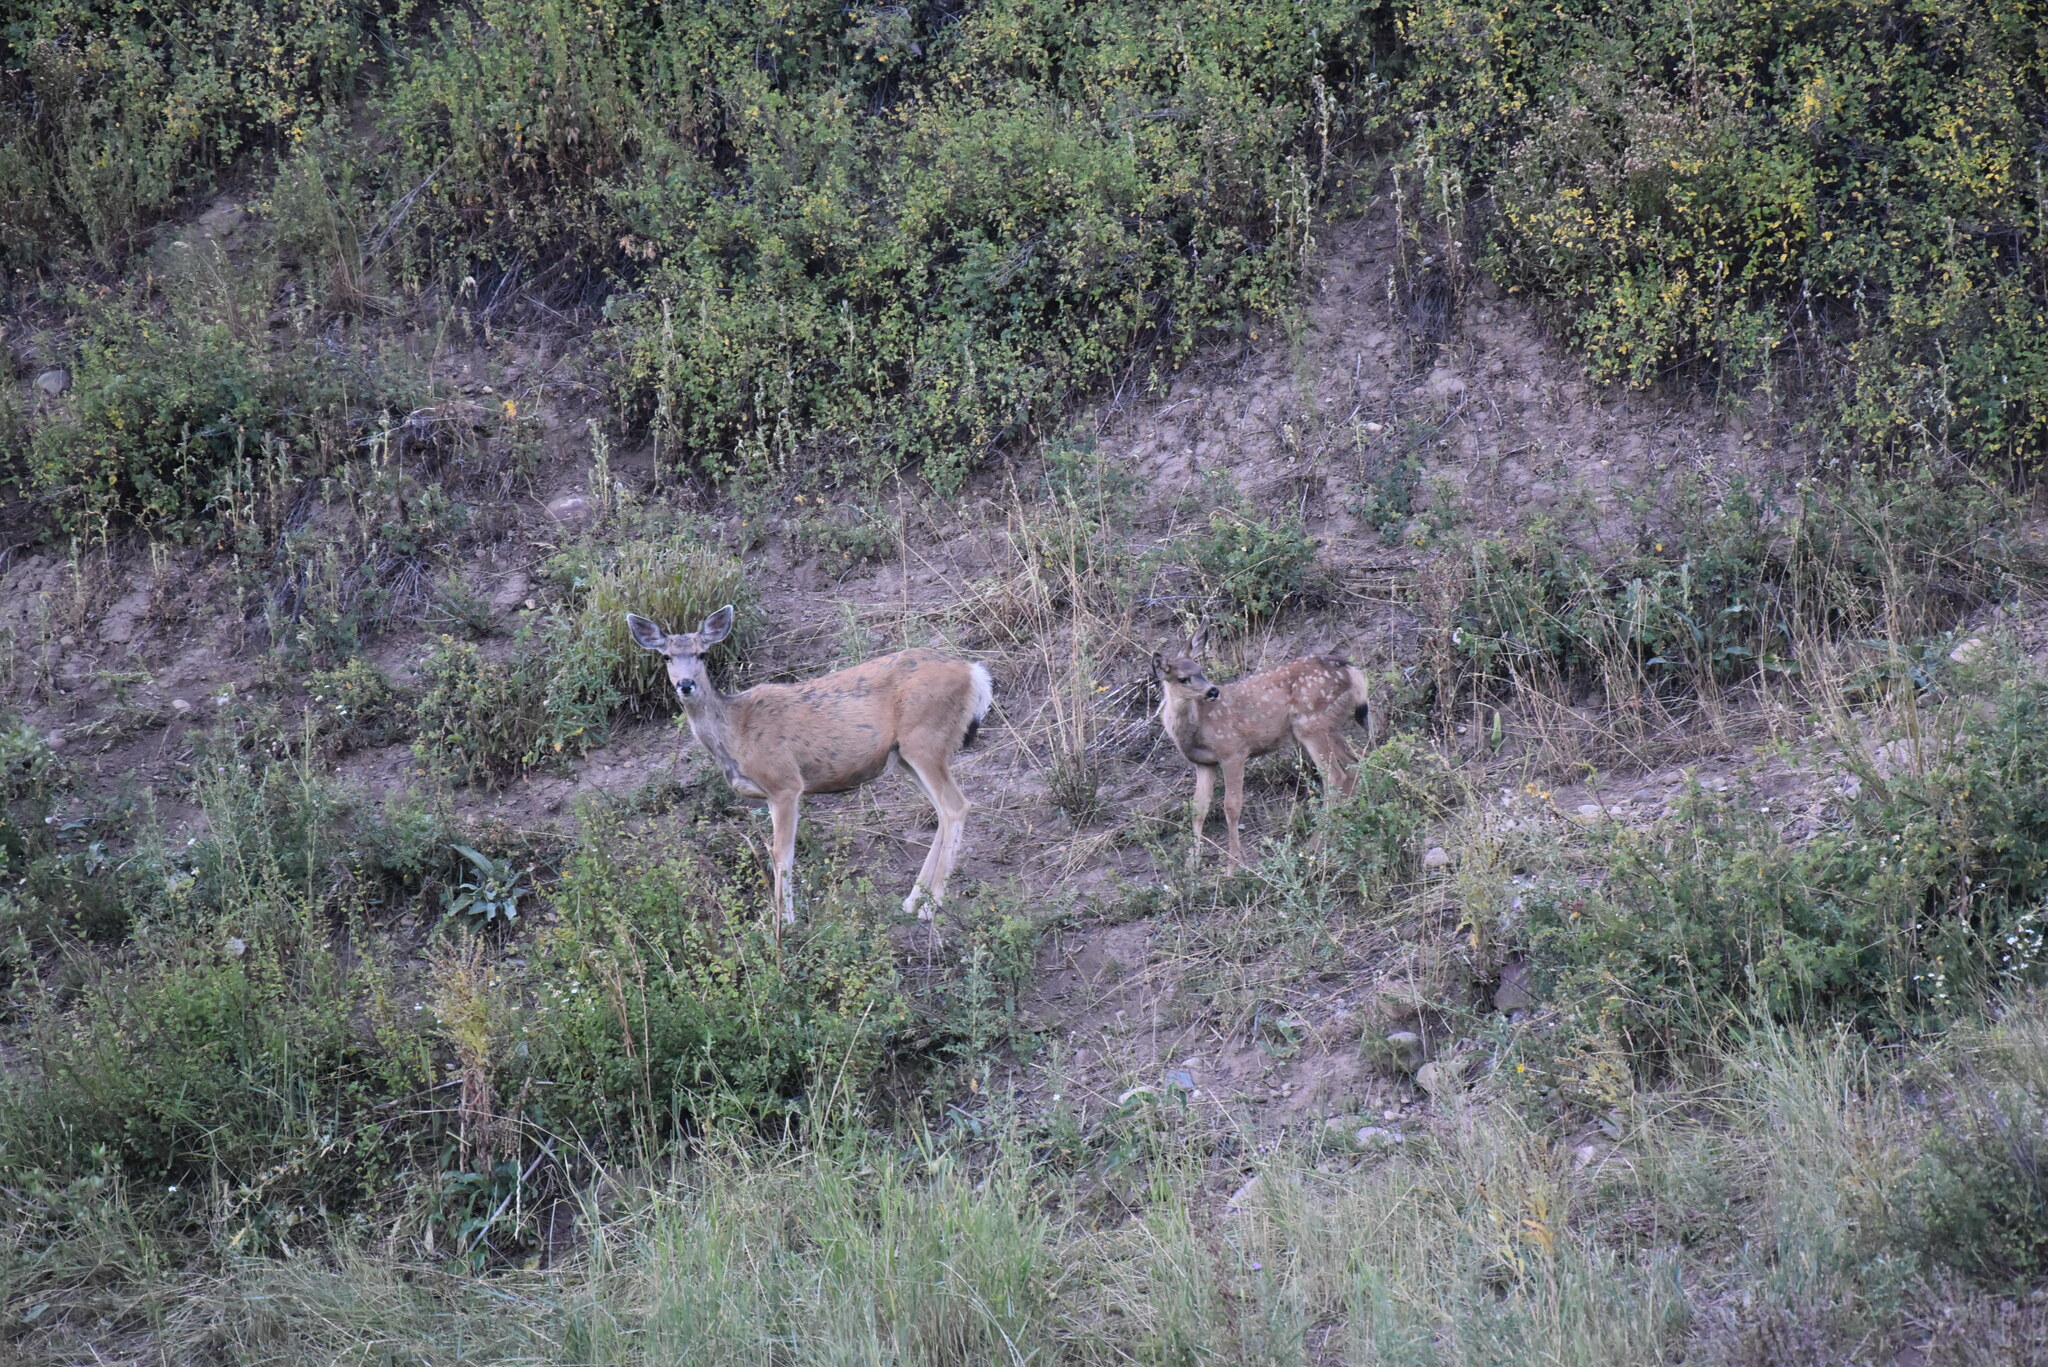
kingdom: Animalia
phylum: Chordata
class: Mammalia
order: Artiodactyla
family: Cervidae
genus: Odocoileus
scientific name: Odocoileus hemionus
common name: Mule deer
